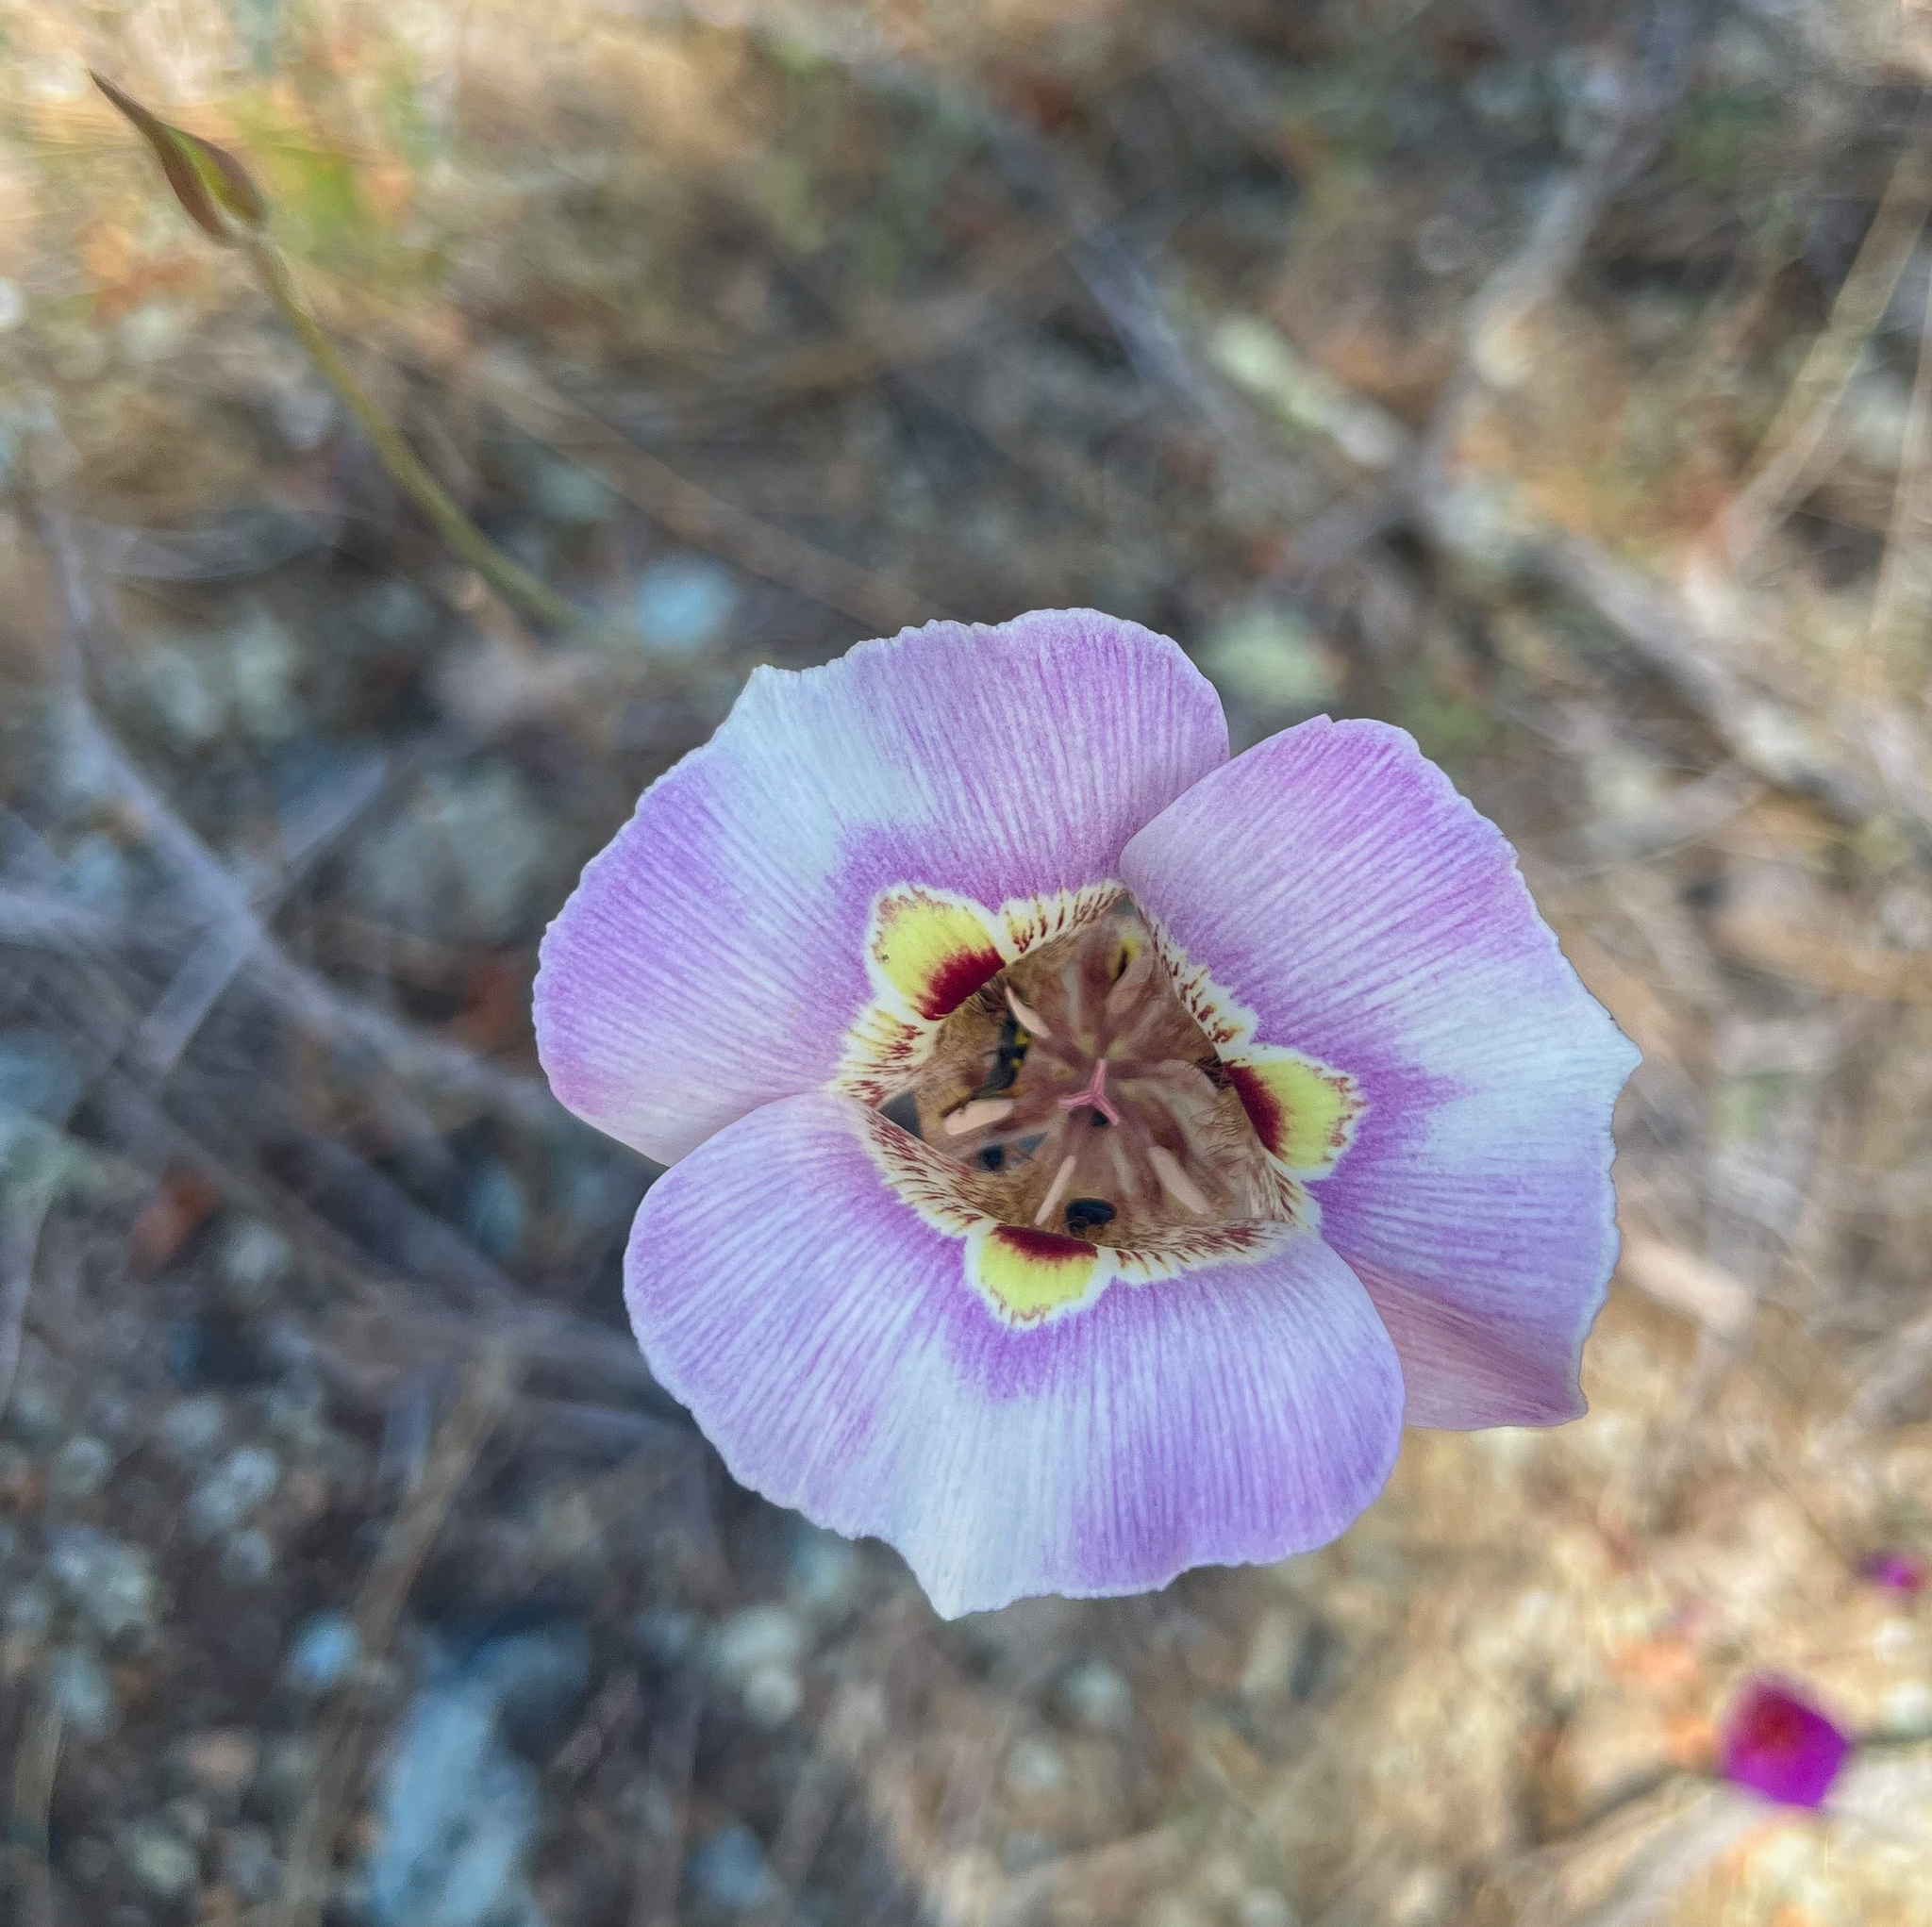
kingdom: Plantae
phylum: Tracheophyta
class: Liliopsida
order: Liliales
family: Liliaceae
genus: Calochortus
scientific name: Calochortus argillosus
